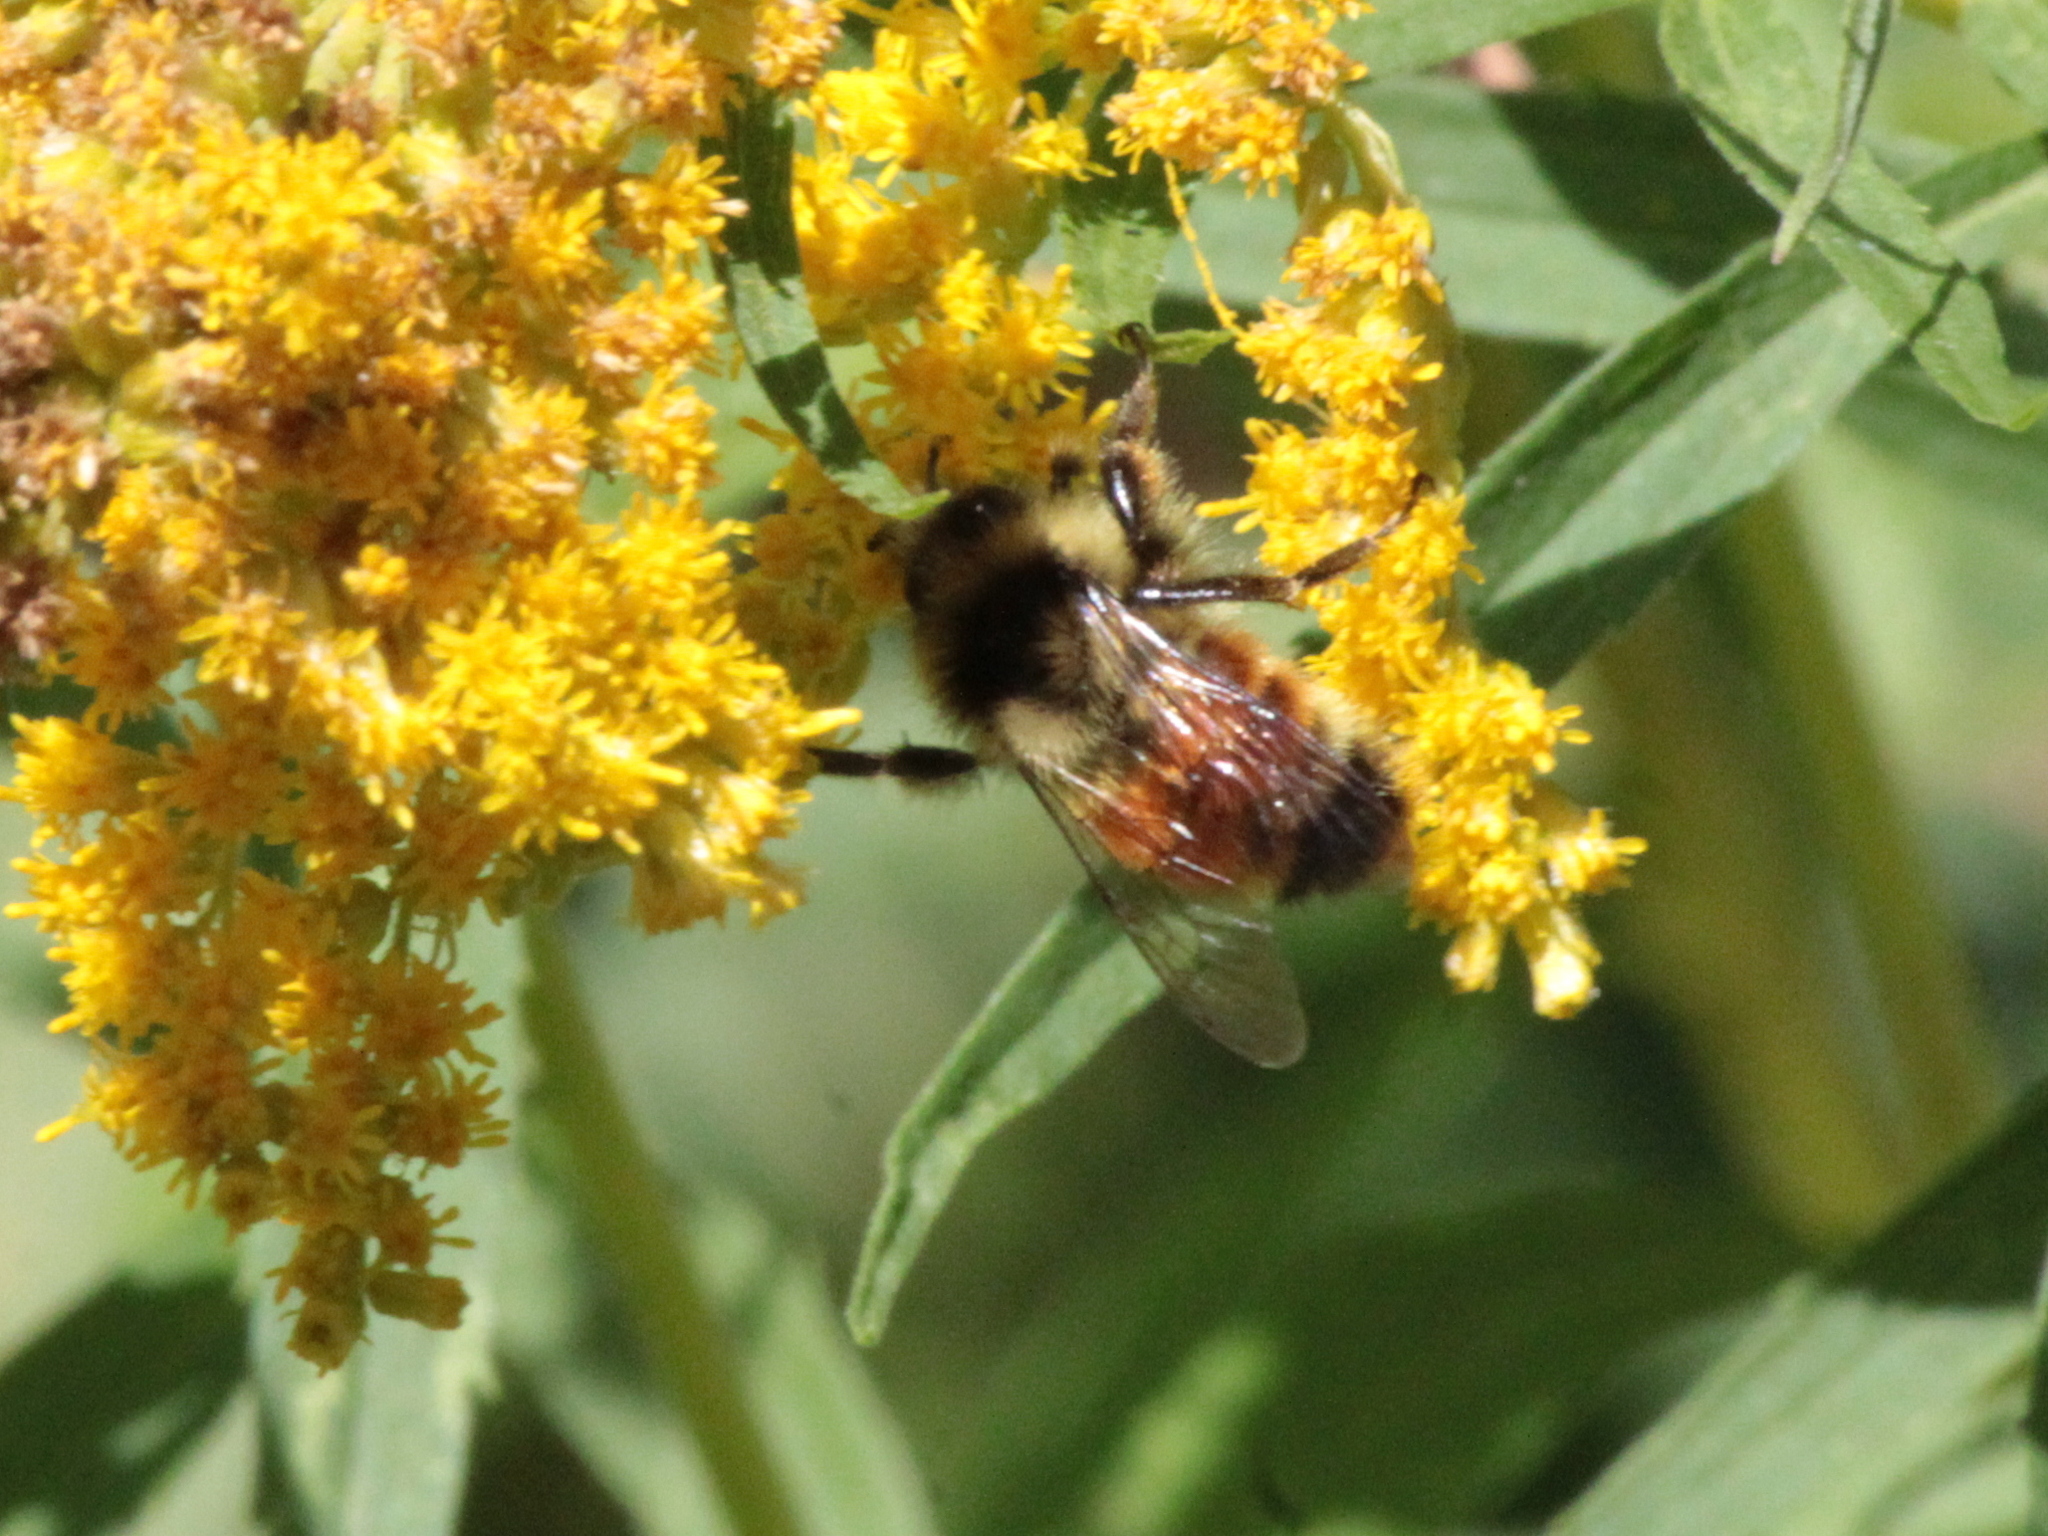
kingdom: Animalia
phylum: Arthropoda
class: Insecta
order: Hymenoptera
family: Apidae
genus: Bombus
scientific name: Bombus ternarius
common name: Tri-colored bumble bee
